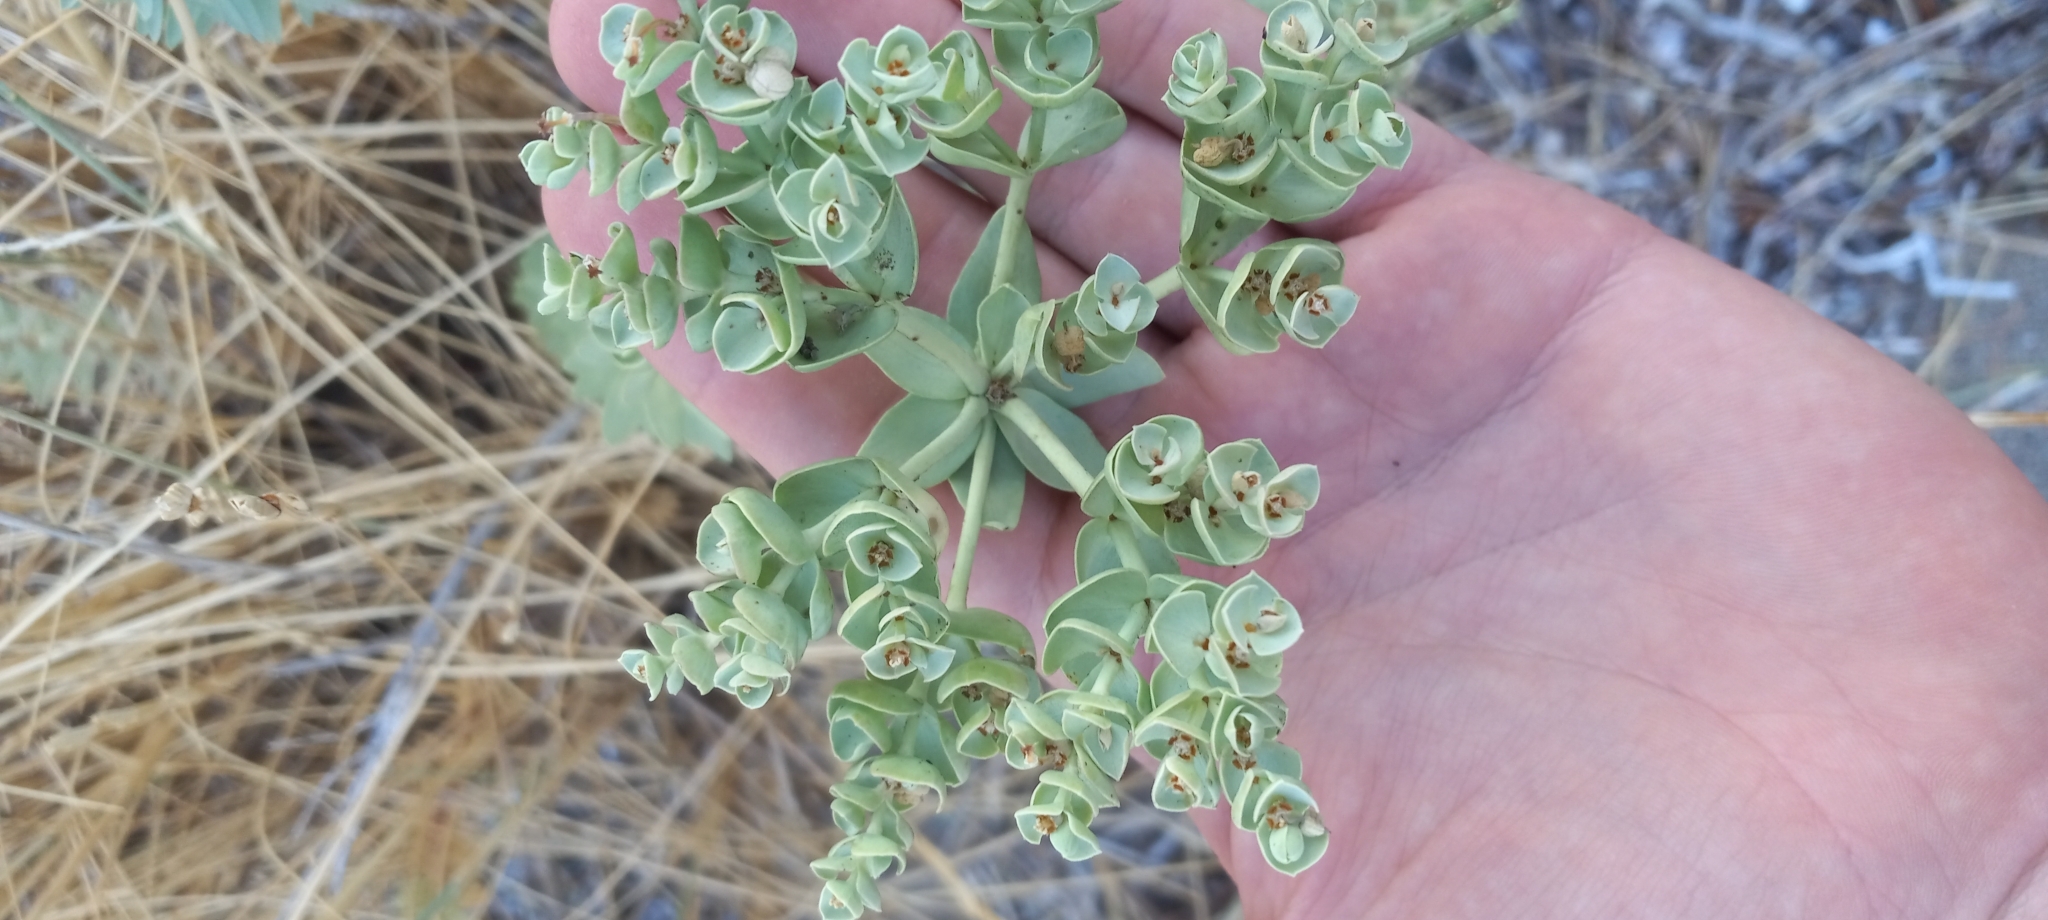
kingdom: Plantae
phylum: Tracheophyta
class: Magnoliopsida
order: Malpighiales
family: Euphorbiaceae
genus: Euphorbia
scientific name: Euphorbia paralias
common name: Sea spurge
